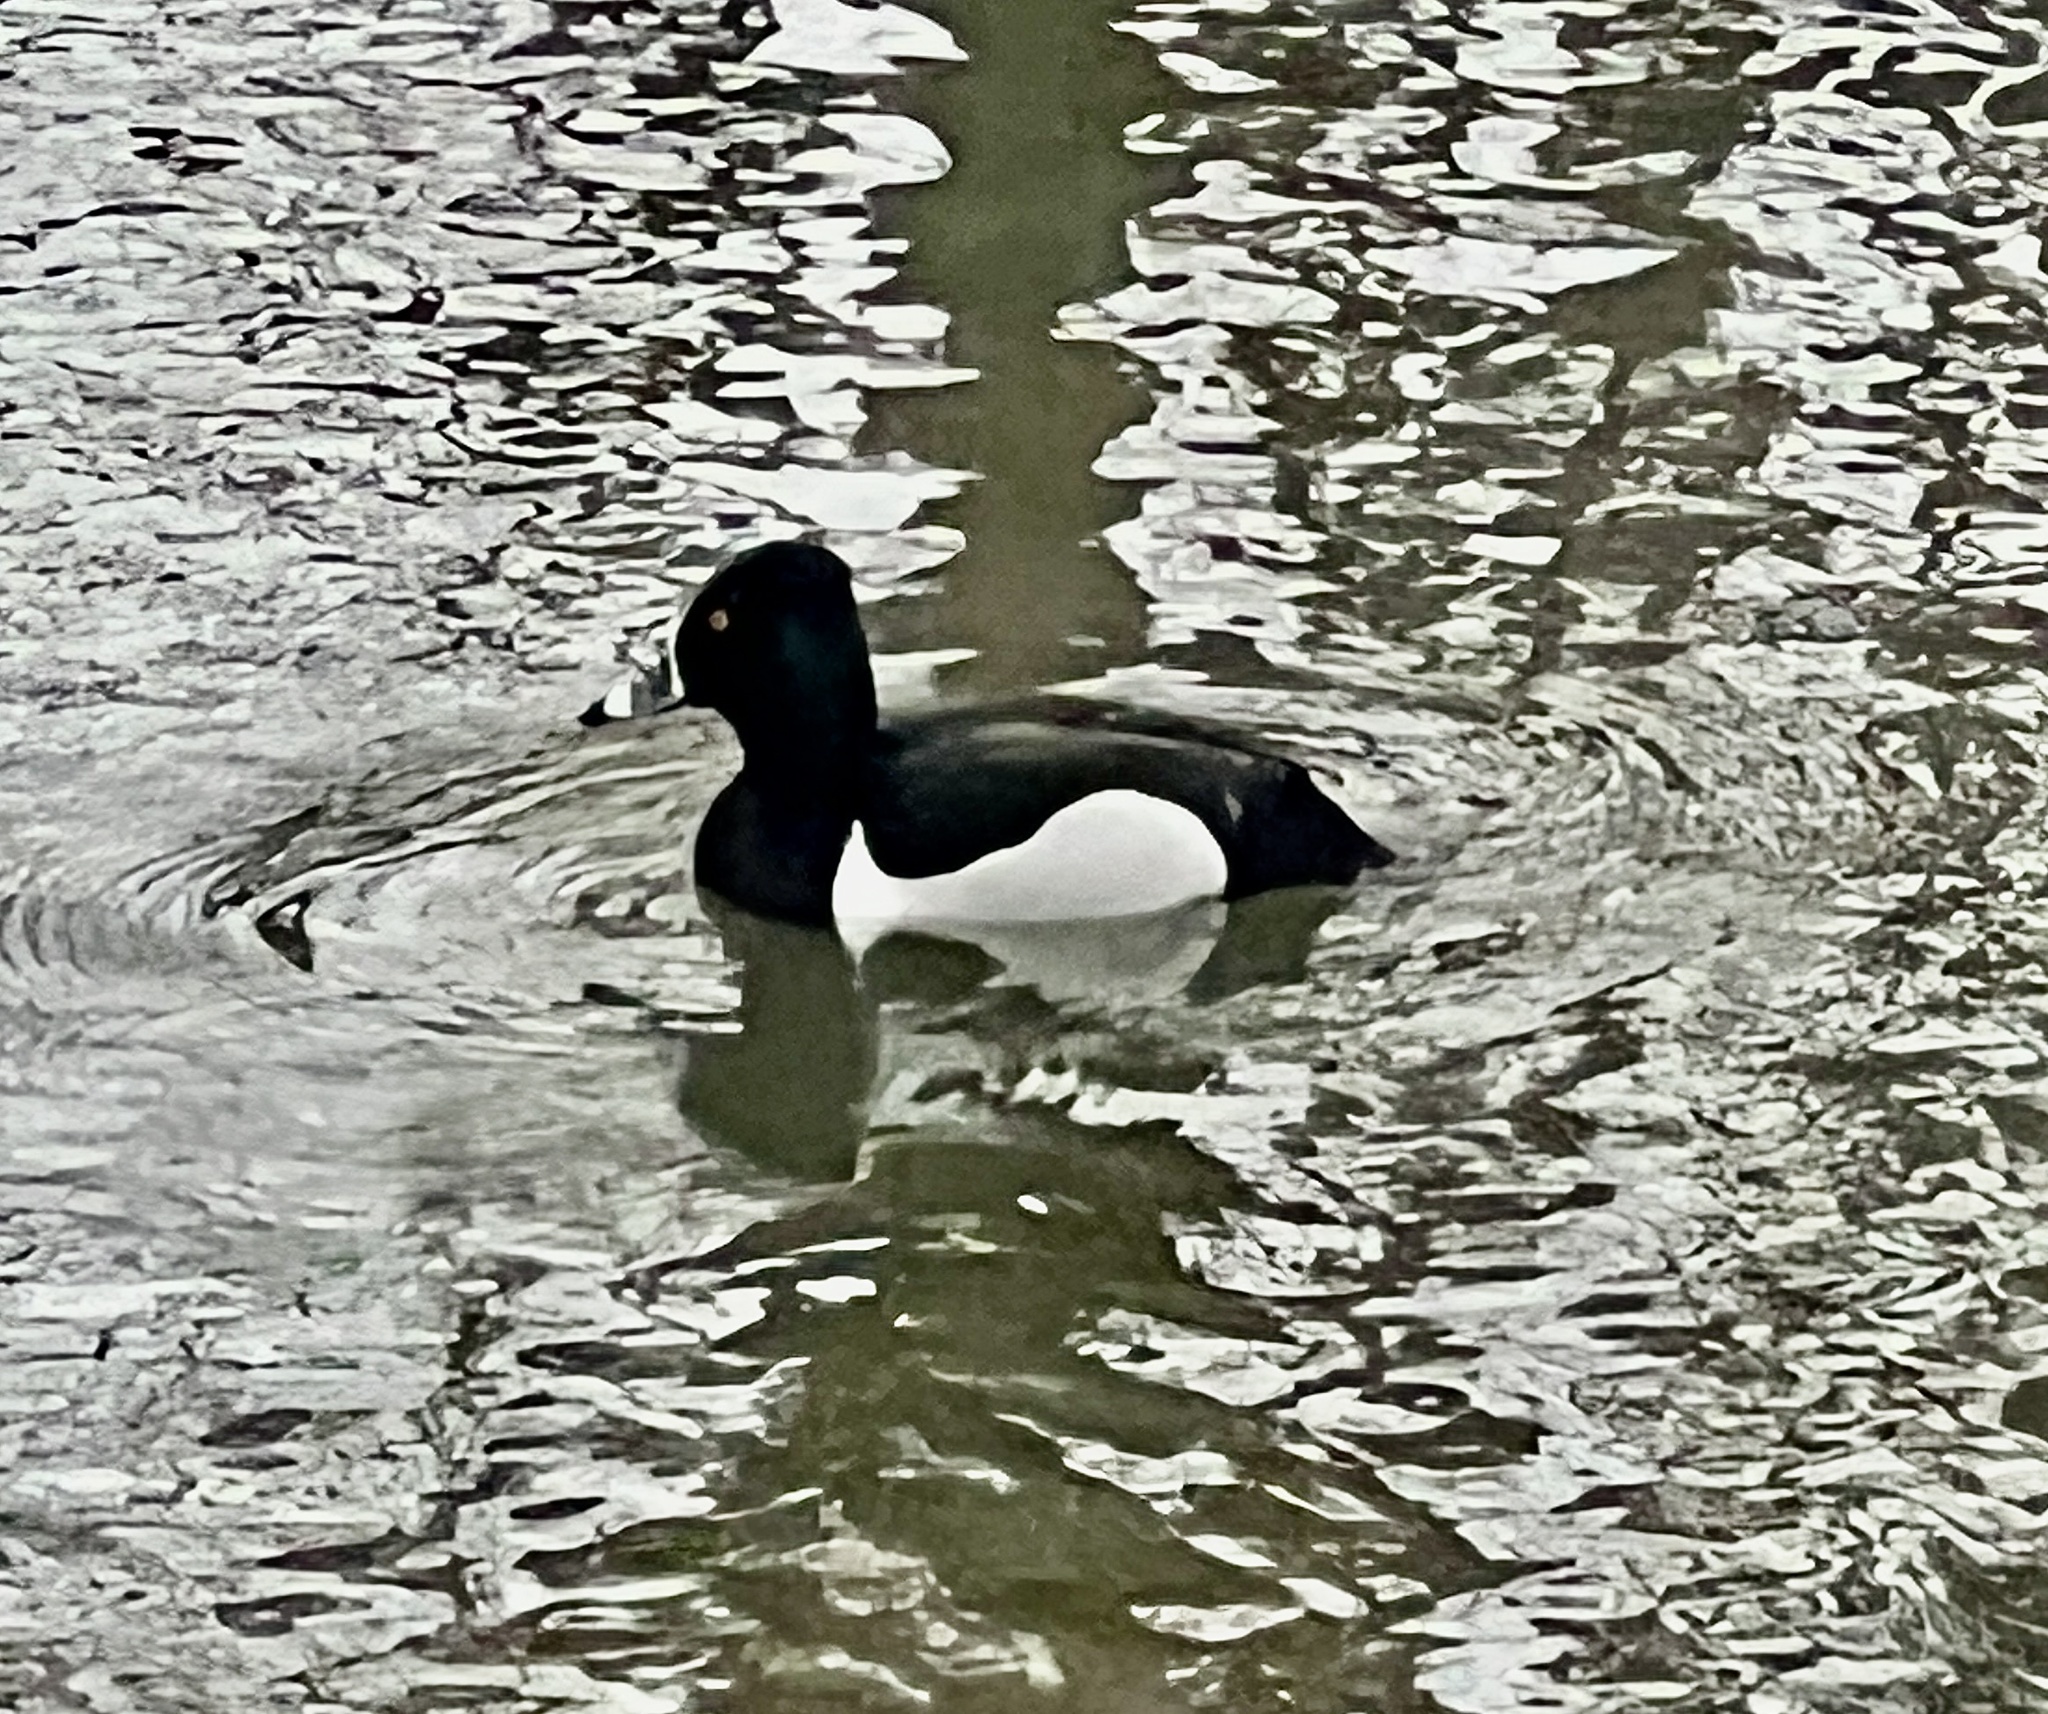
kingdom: Animalia
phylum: Chordata
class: Aves
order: Anseriformes
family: Anatidae
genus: Aythya
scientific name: Aythya collaris
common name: Ring-necked duck
